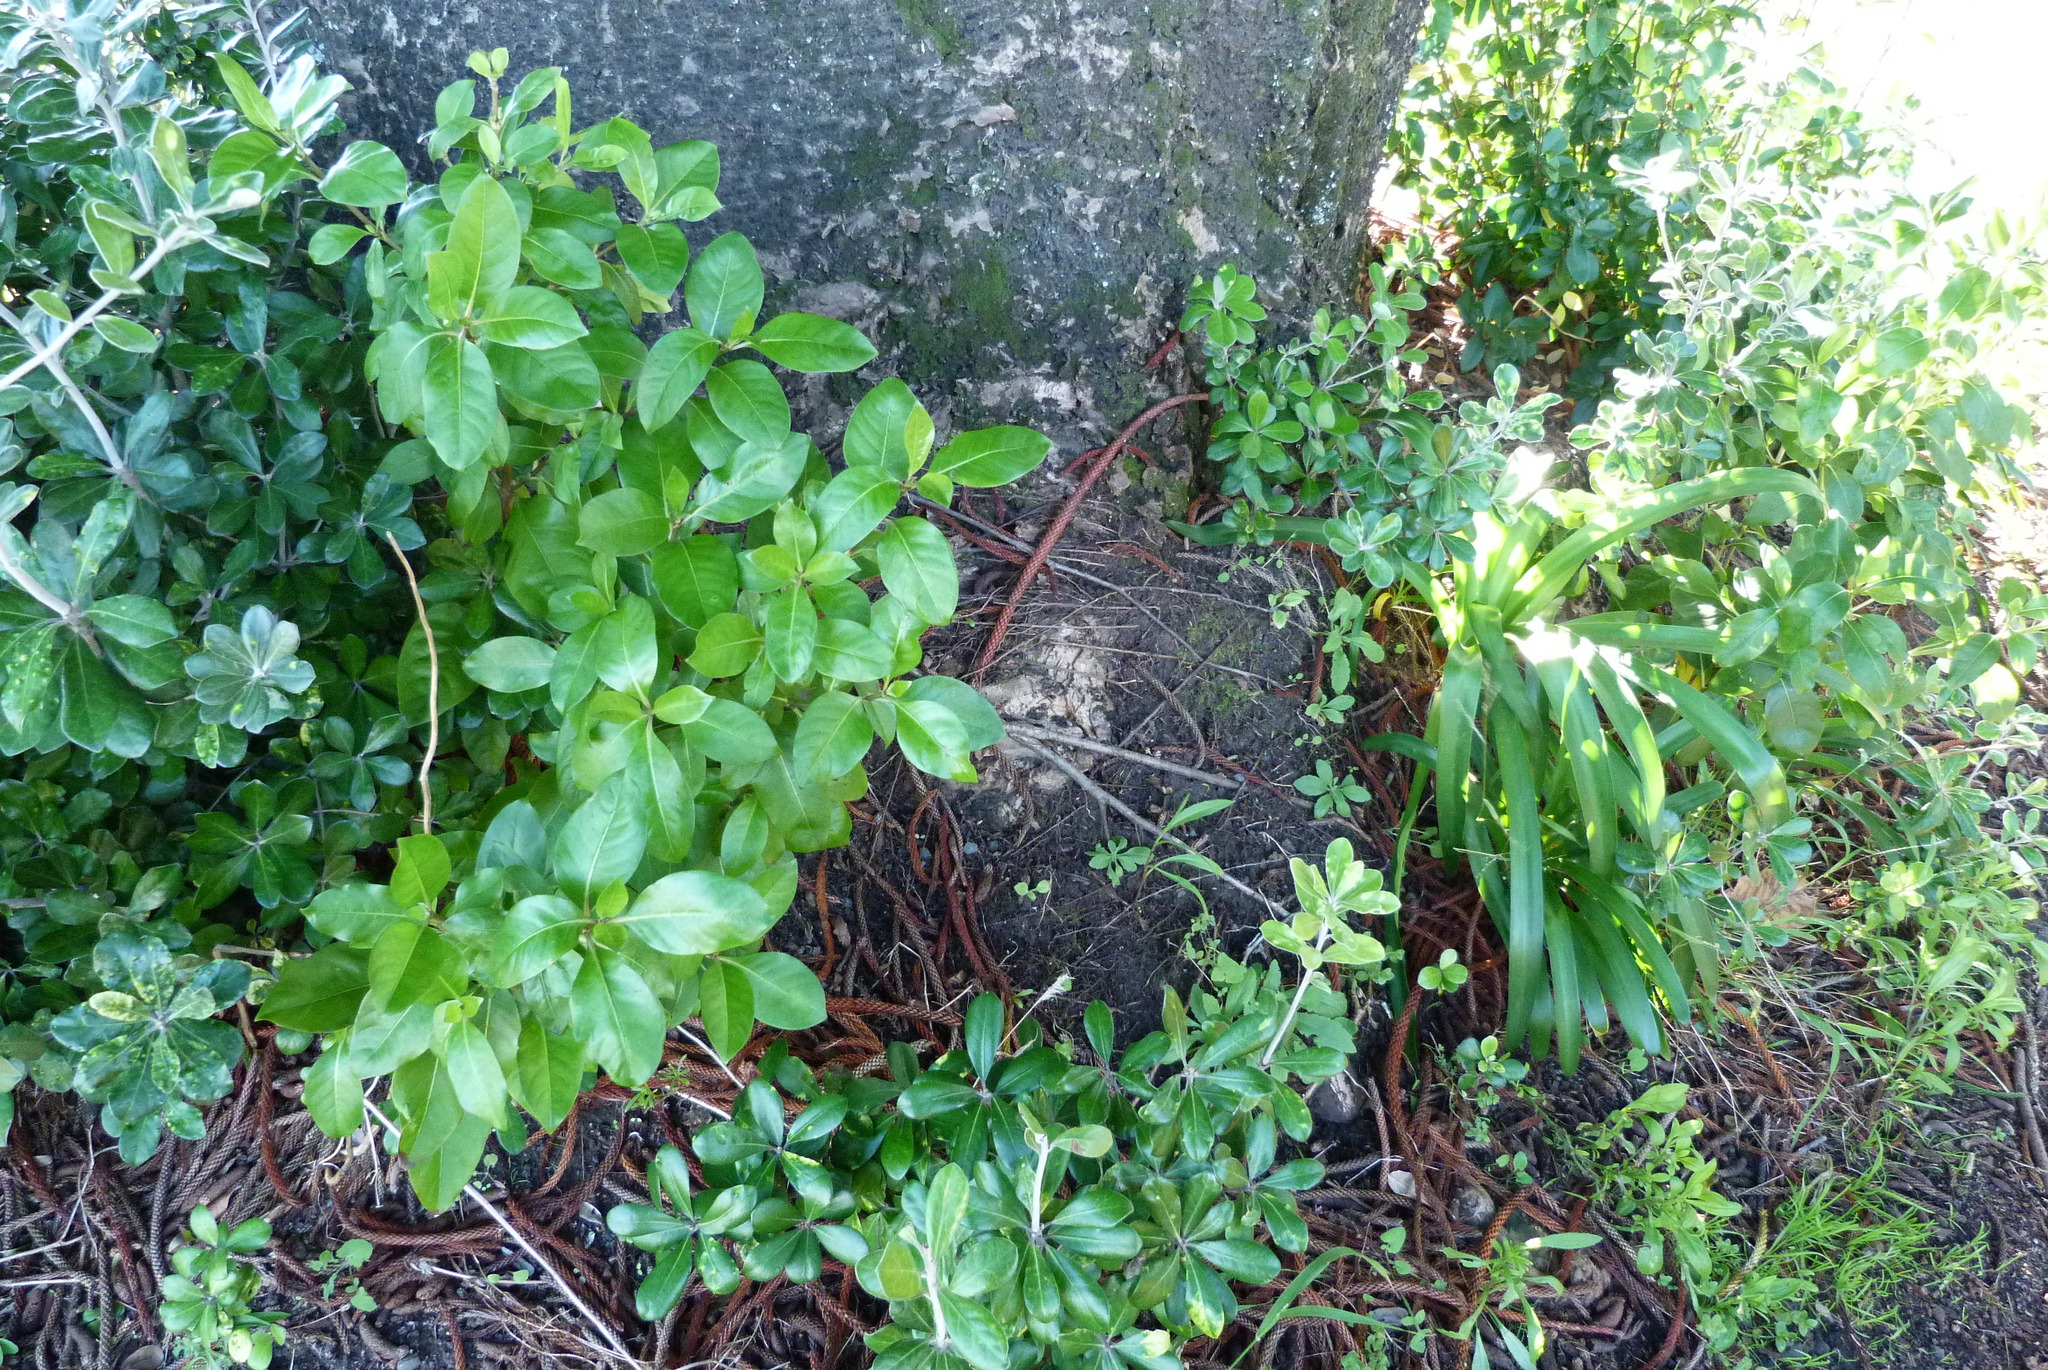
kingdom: Plantae
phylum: Tracheophyta
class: Magnoliopsida
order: Apiales
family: Pittosporaceae
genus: Pittosporum
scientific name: Pittosporum crassifolium
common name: Karo
